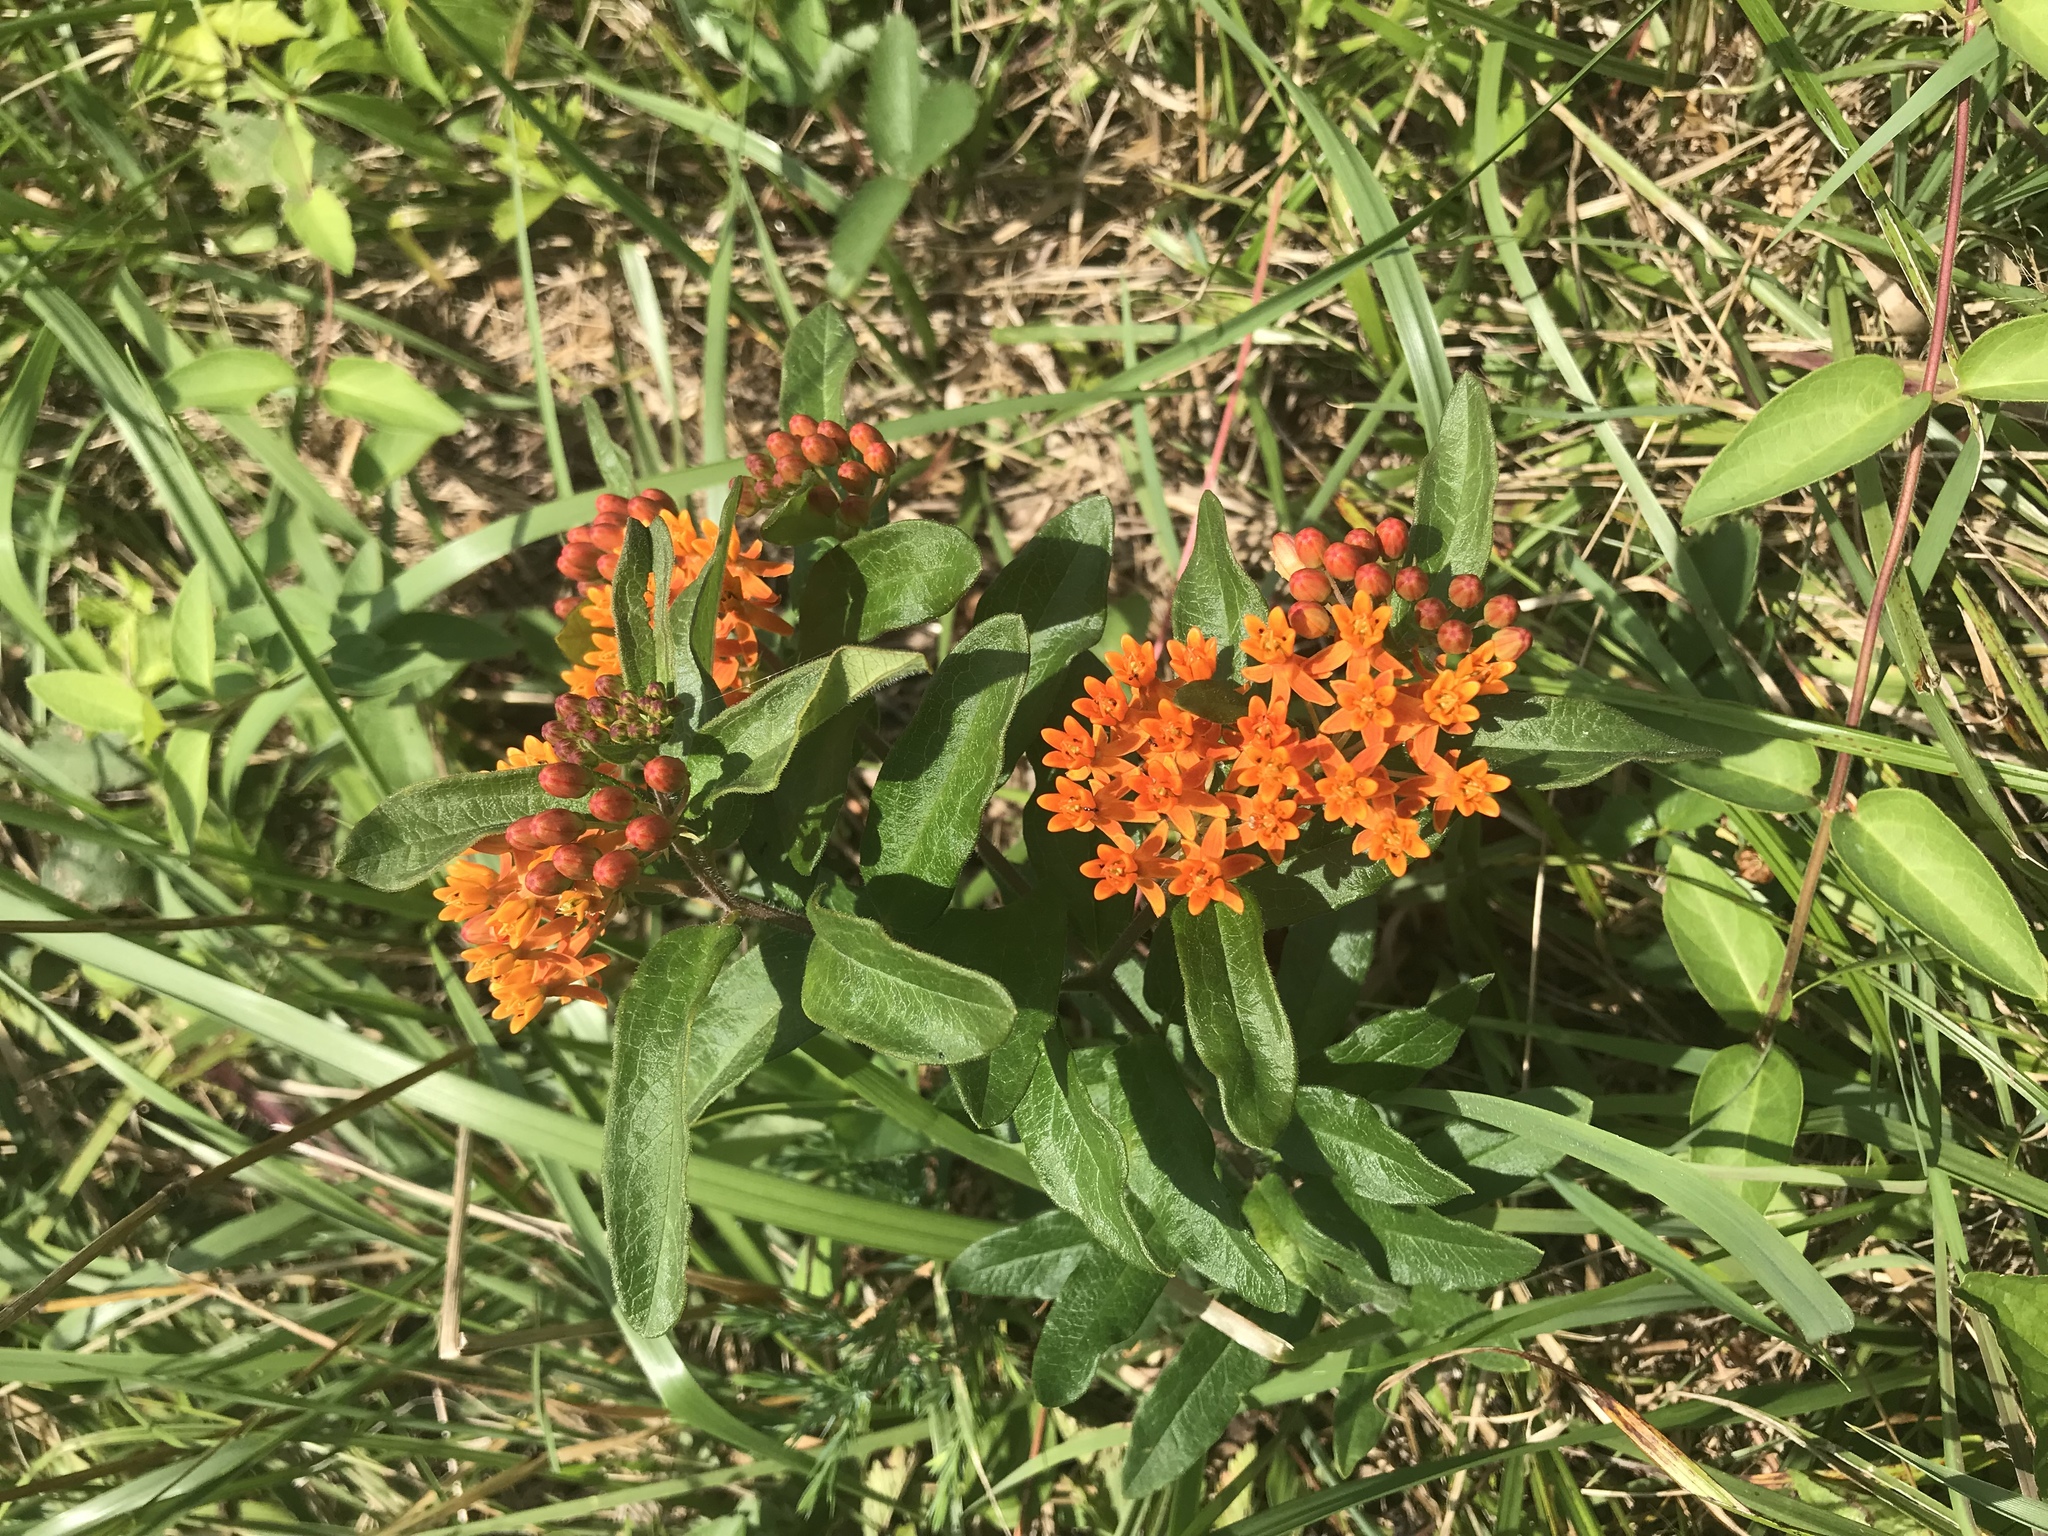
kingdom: Plantae
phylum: Tracheophyta
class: Magnoliopsida
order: Gentianales
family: Apocynaceae
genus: Asclepias
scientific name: Asclepias tuberosa
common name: Butterfly milkweed
